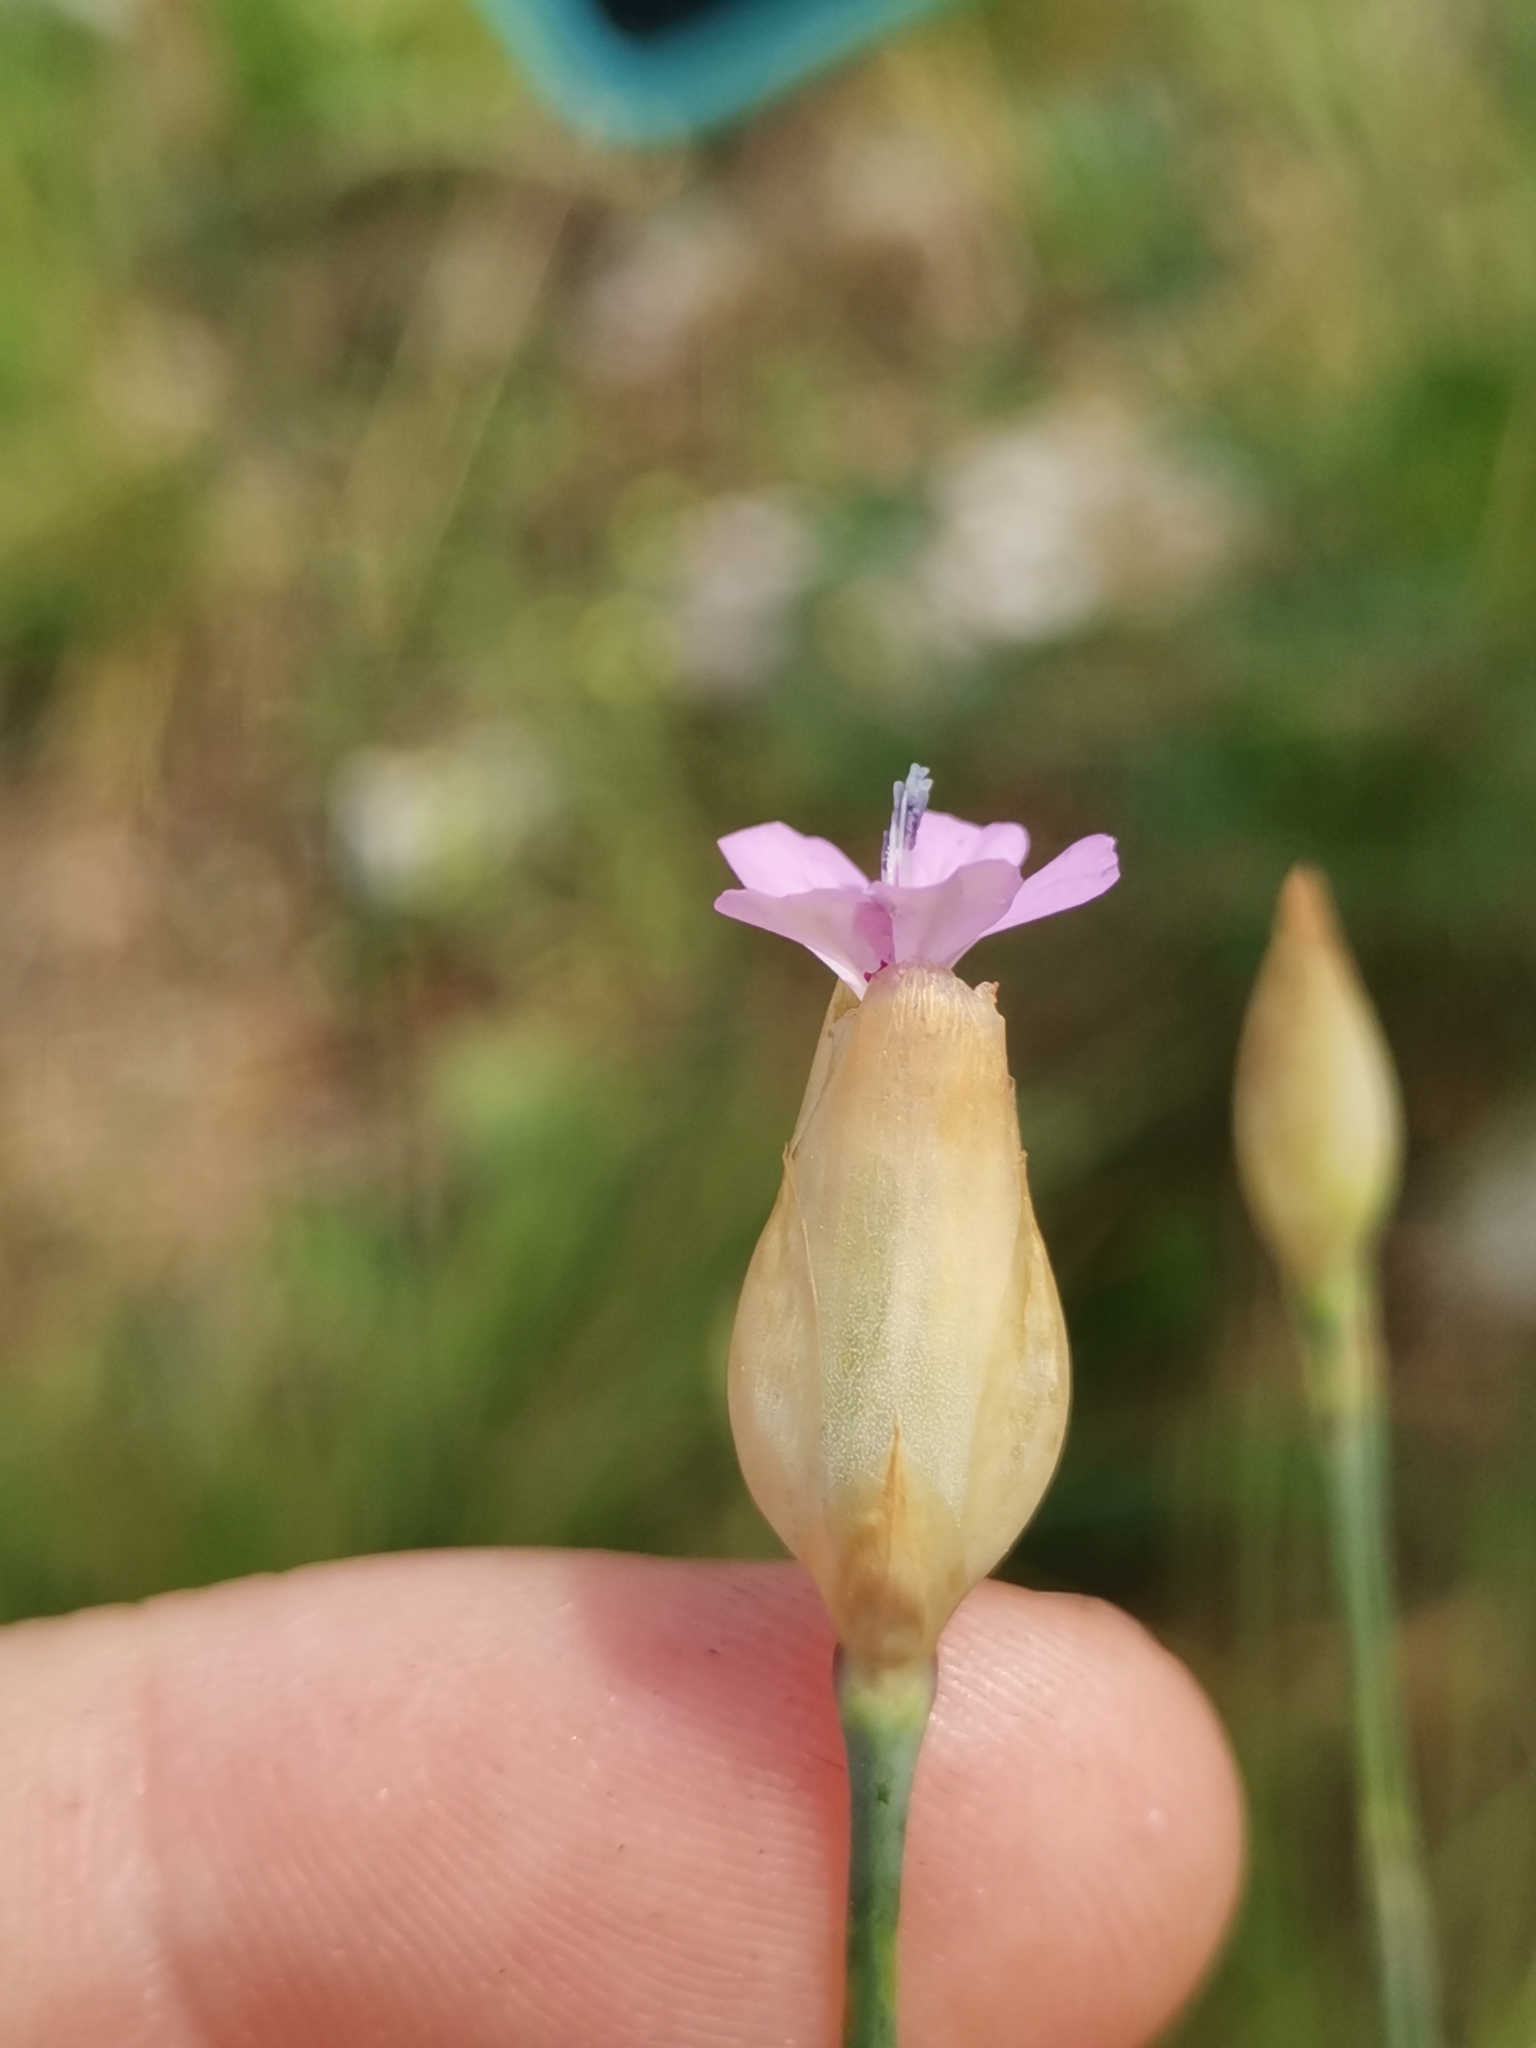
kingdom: Plantae
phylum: Tracheophyta
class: Magnoliopsida
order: Caryophyllales
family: Caryophyllaceae
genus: Petrorhagia
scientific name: Petrorhagia prolifera
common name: Proliferous pink
